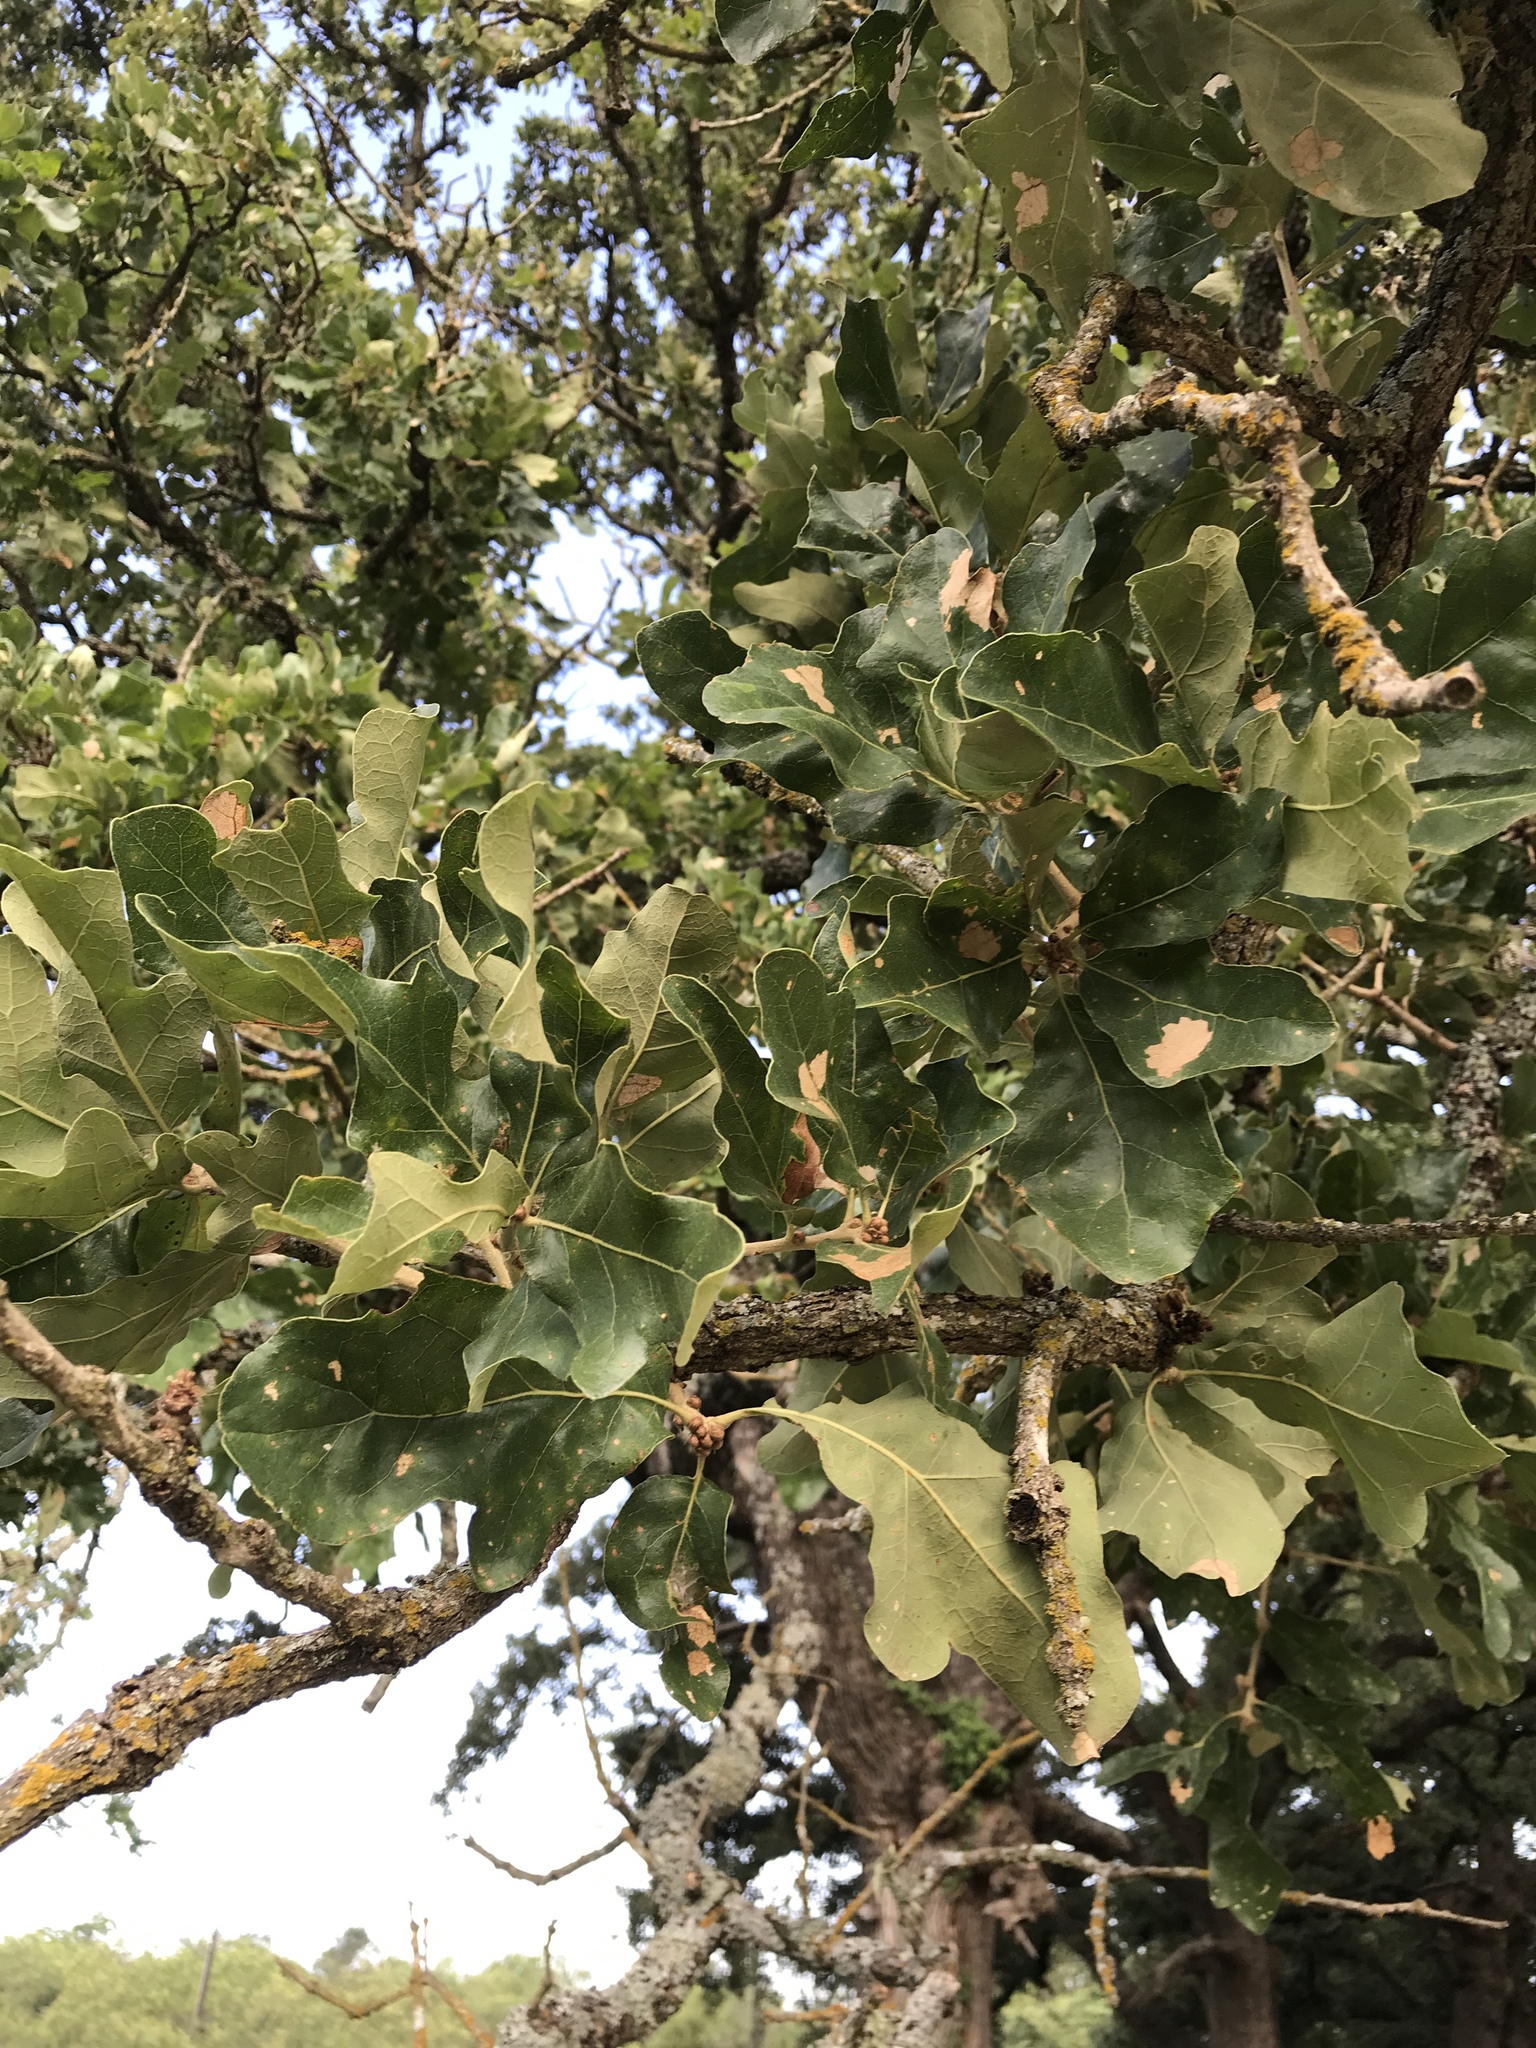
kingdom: Plantae
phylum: Tracheophyta
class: Magnoliopsida
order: Fagales
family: Fagaceae
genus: Quercus
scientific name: Quercus stellata
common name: Post oak
